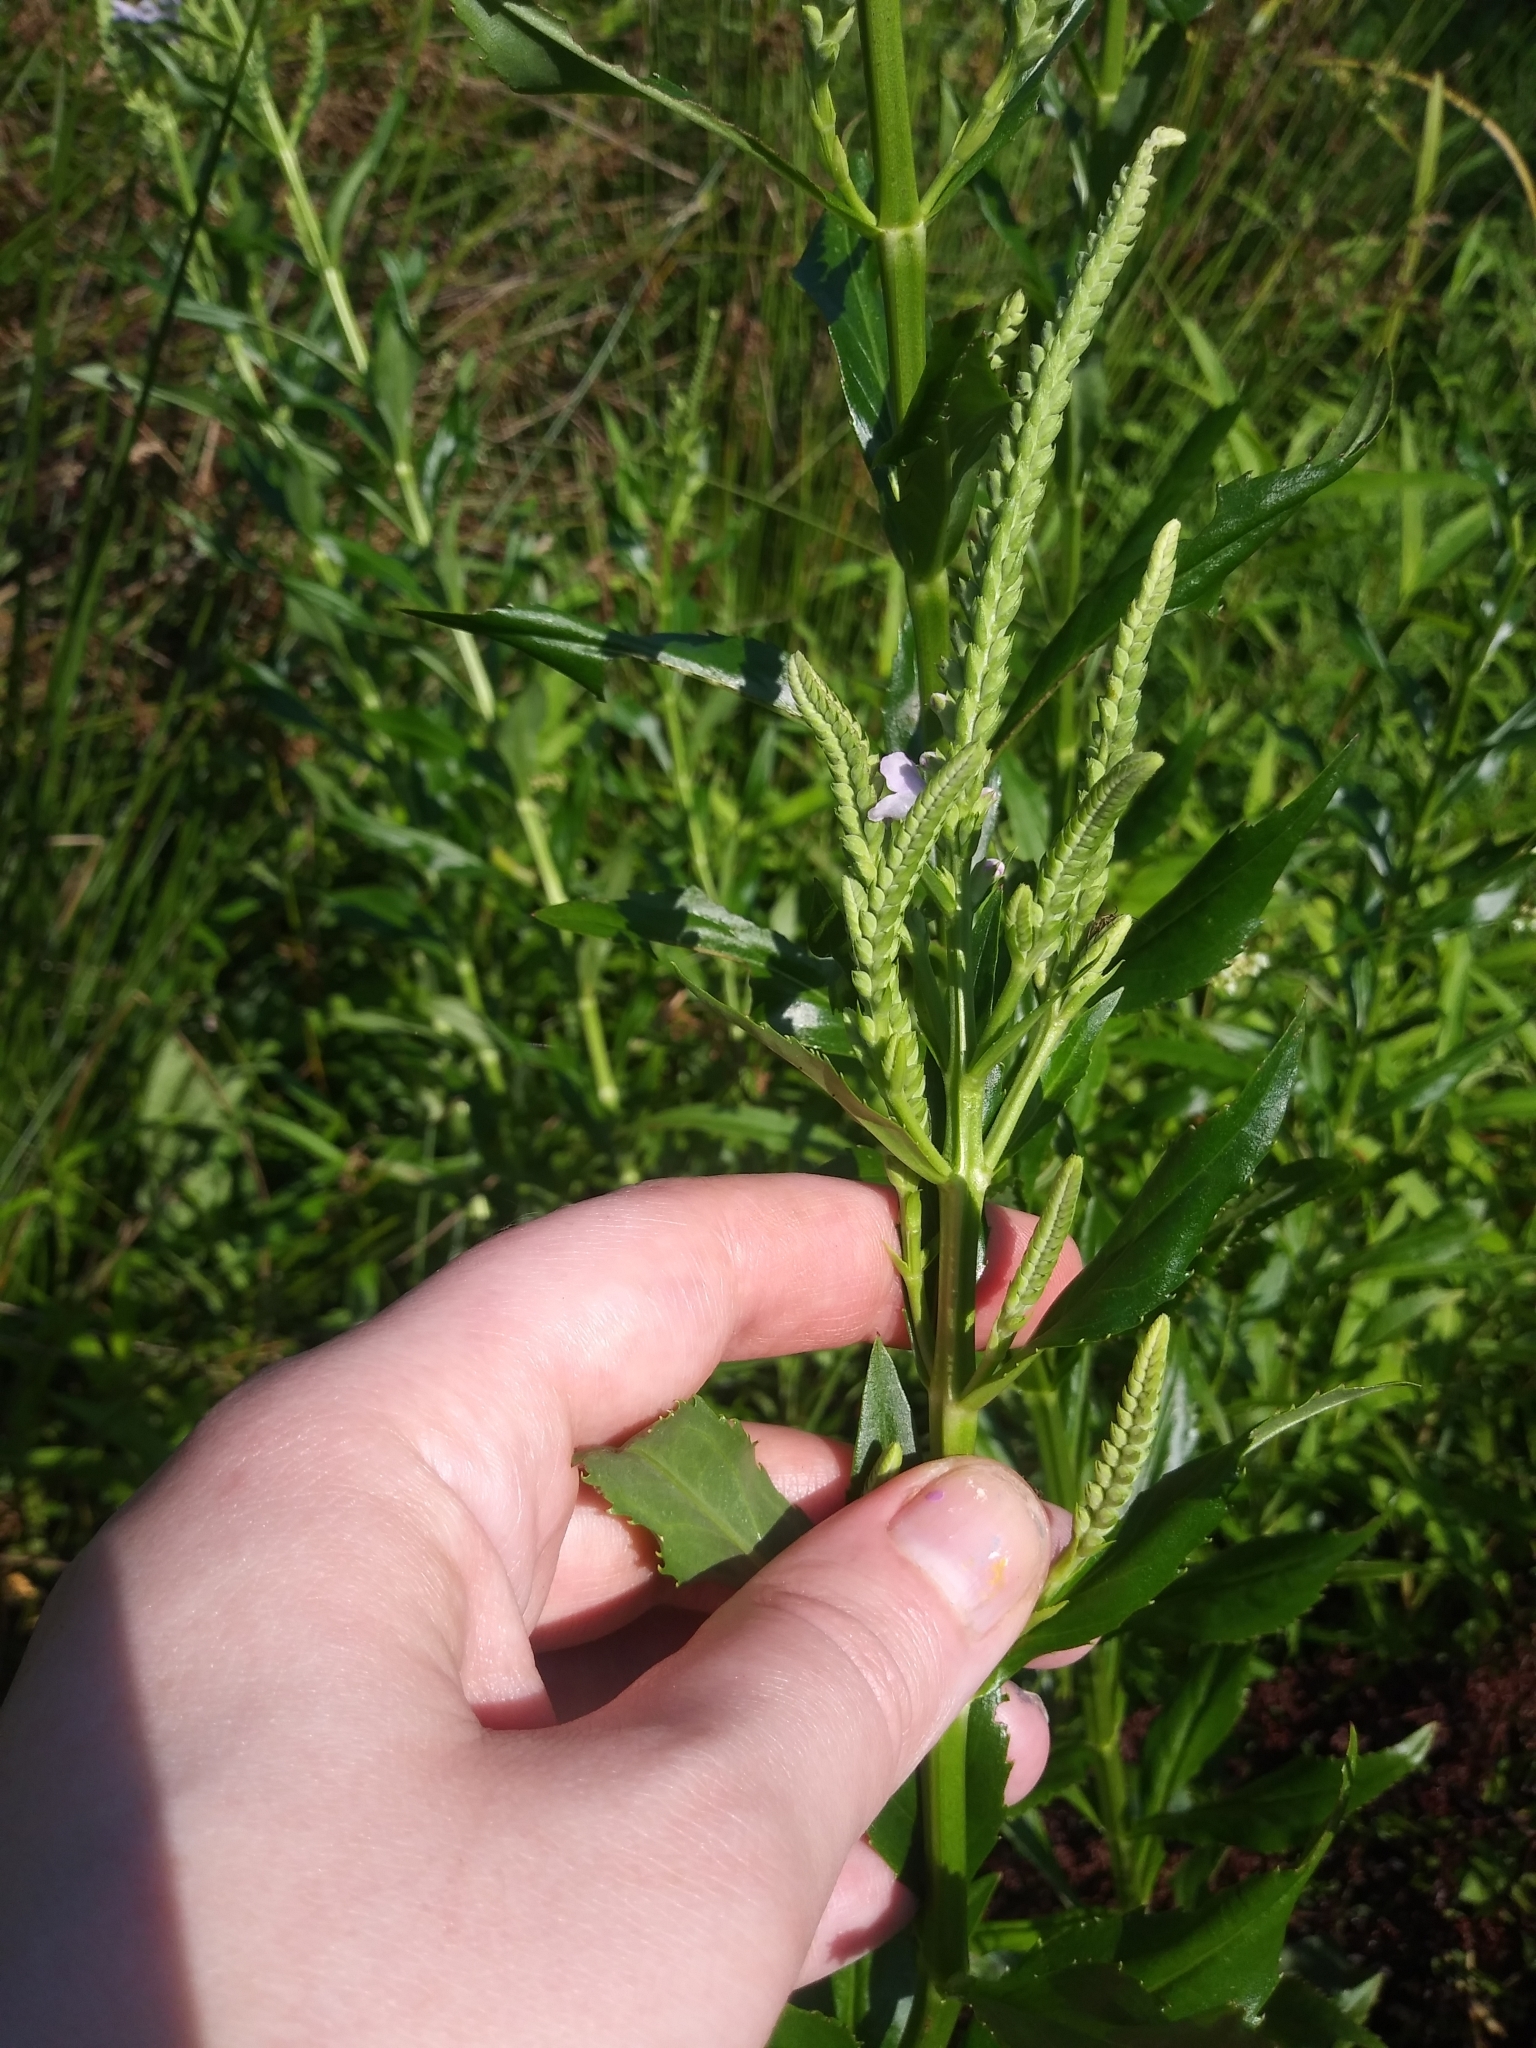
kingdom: Plantae
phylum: Tracheophyta
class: Magnoliopsida
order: Lamiales
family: Lamiaceae
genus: Physostegia
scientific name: Physostegia virginiana
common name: Obedient-plant
